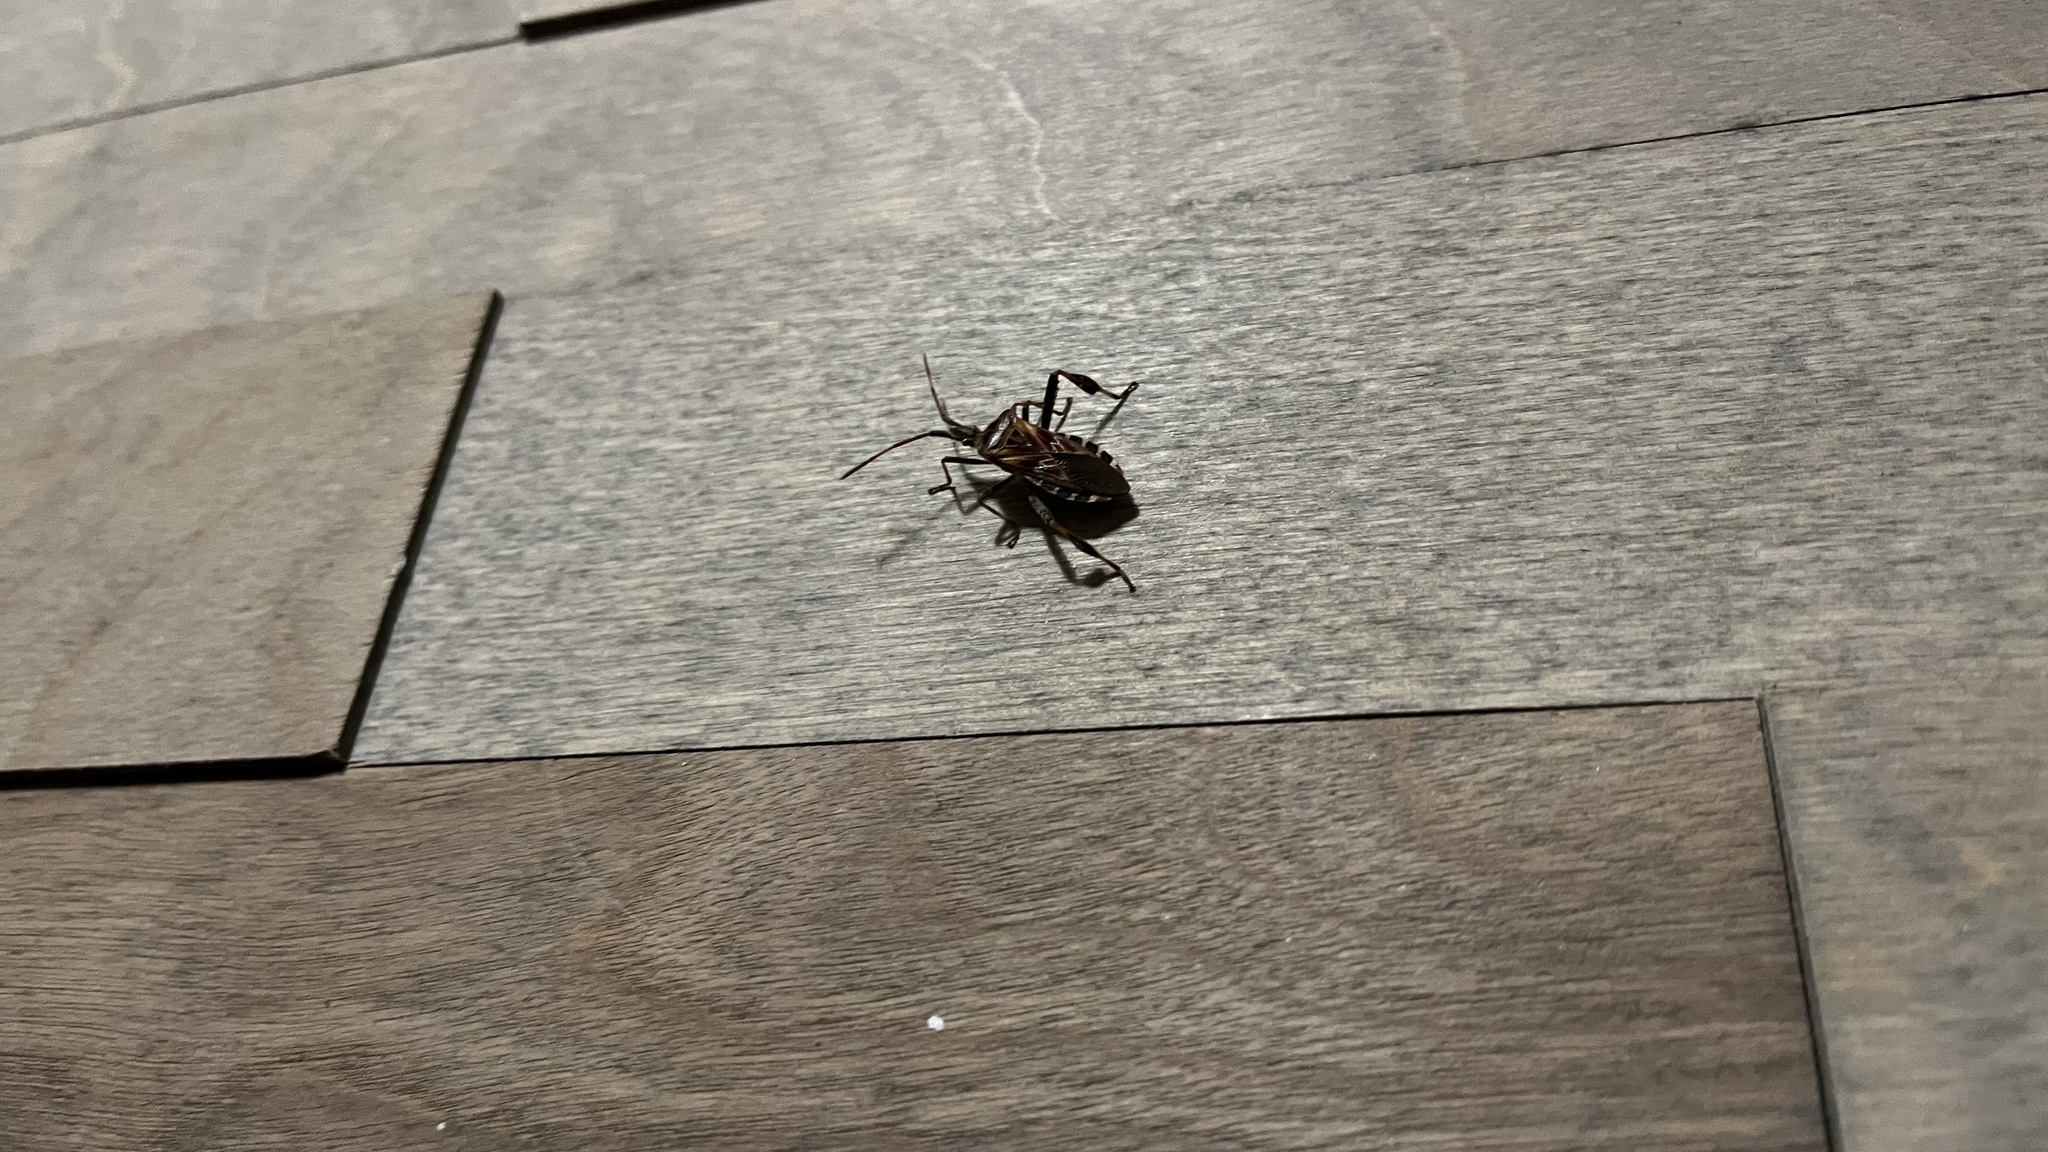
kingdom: Animalia
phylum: Arthropoda
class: Insecta
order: Hemiptera
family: Coreidae
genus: Leptoglossus
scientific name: Leptoglossus occidentalis
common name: Western conifer-seed bug
